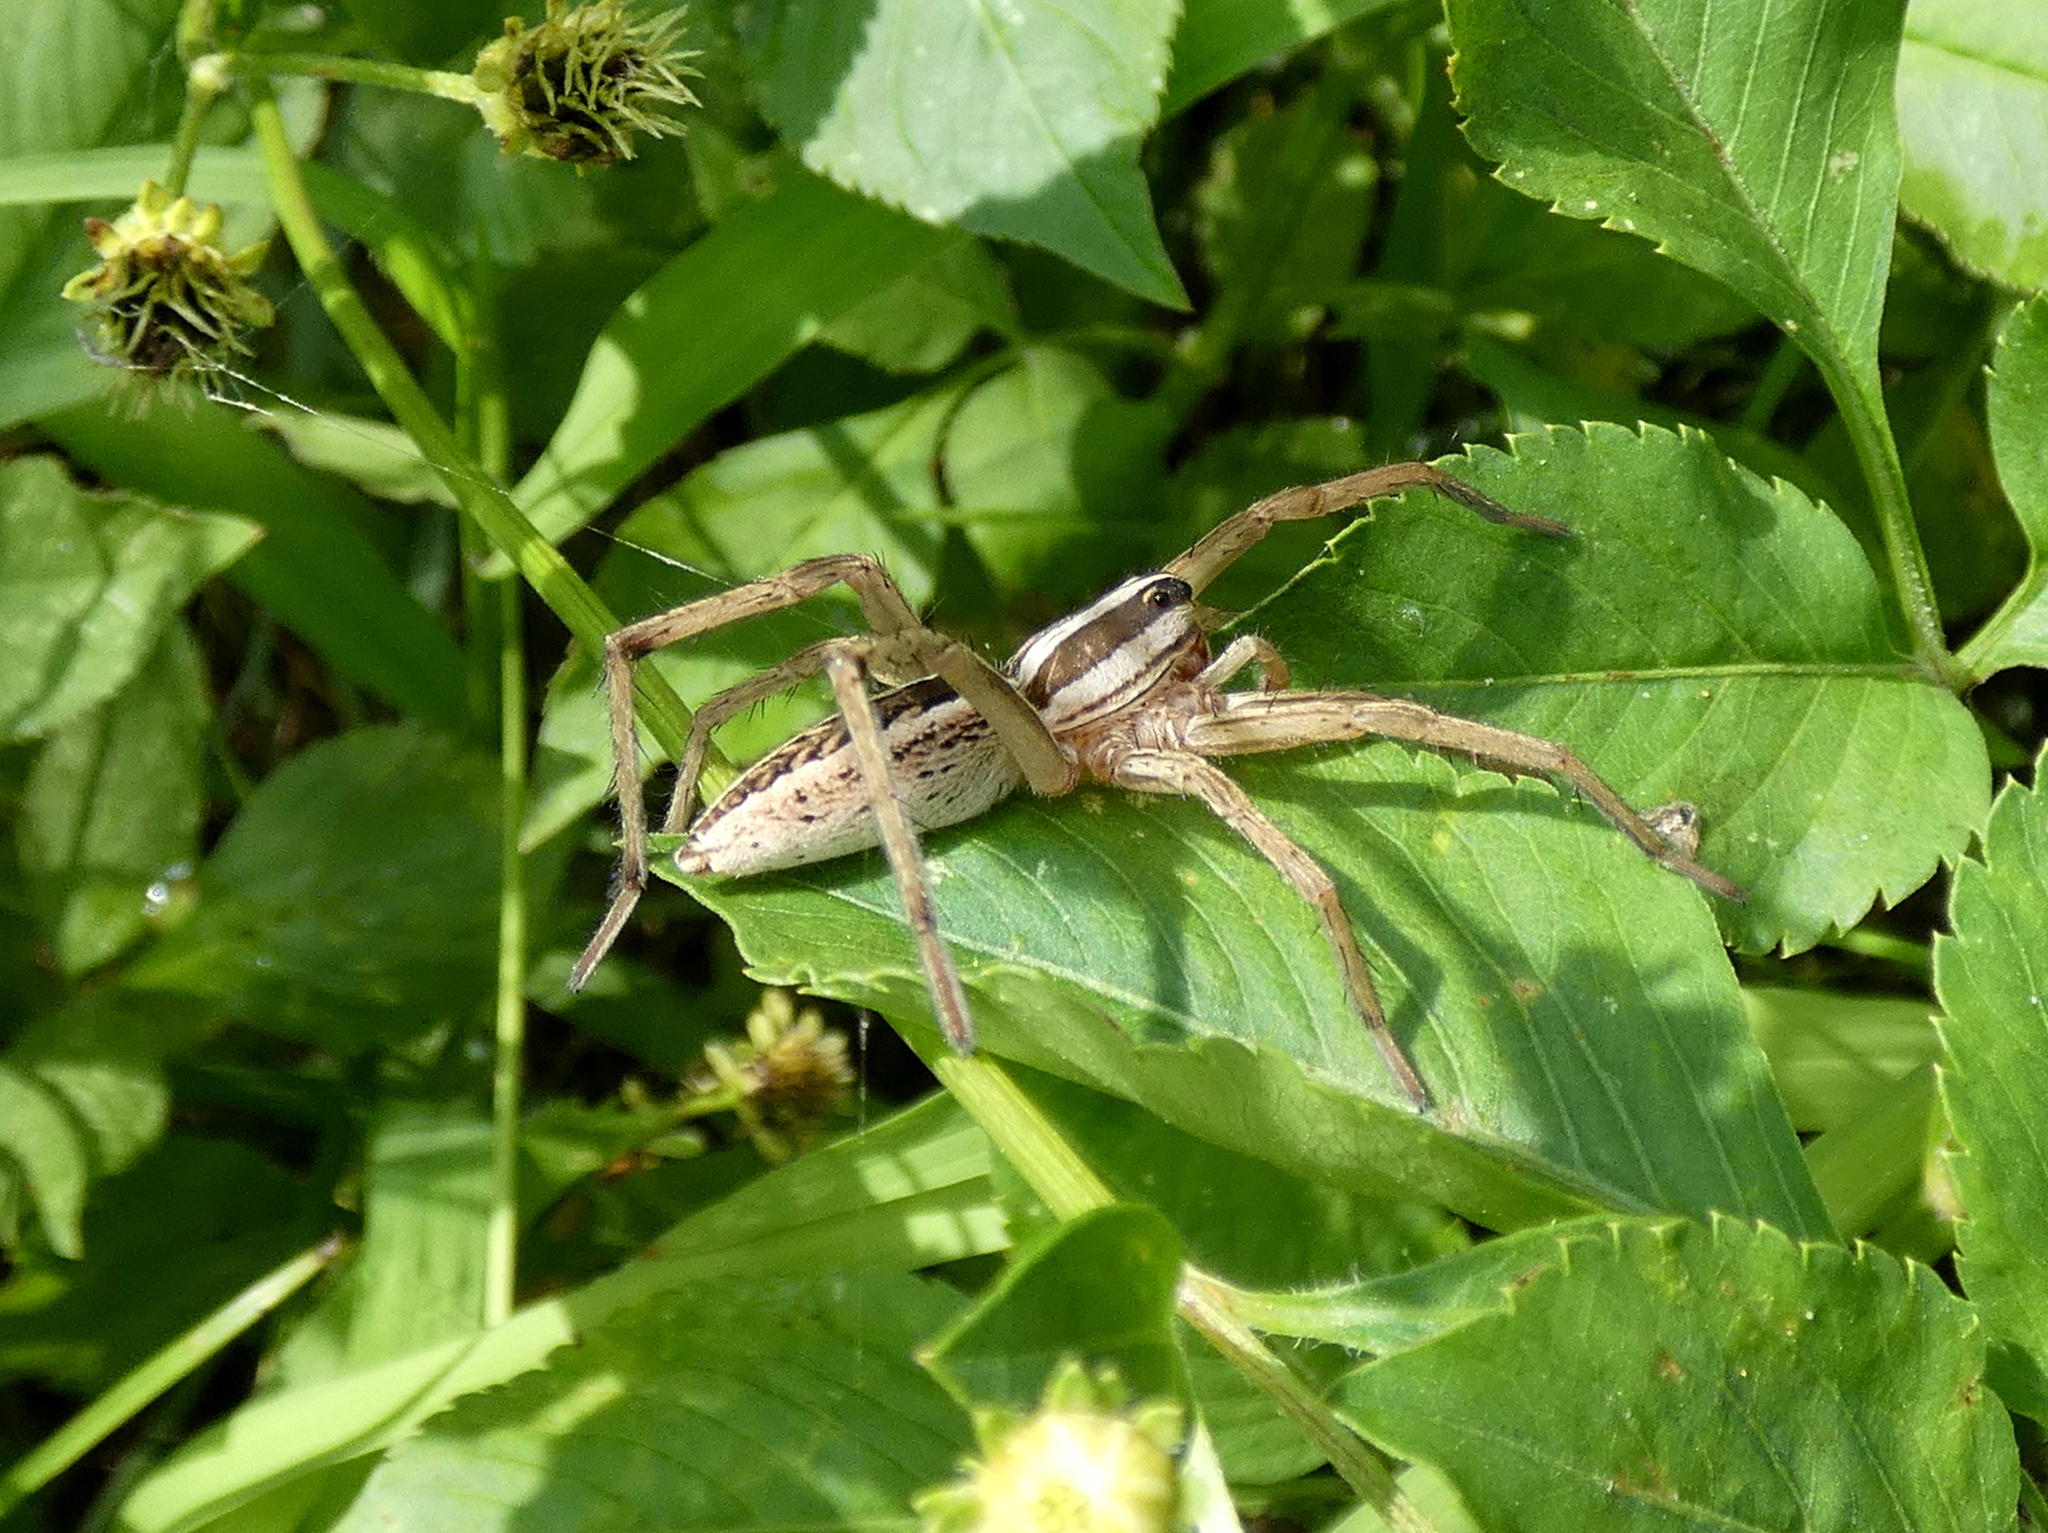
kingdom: Animalia
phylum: Arthropoda
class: Arachnida
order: Araneae
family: Lycosidae
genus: Rabidosa
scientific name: Rabidosa rabida
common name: Rabid wolf spider
